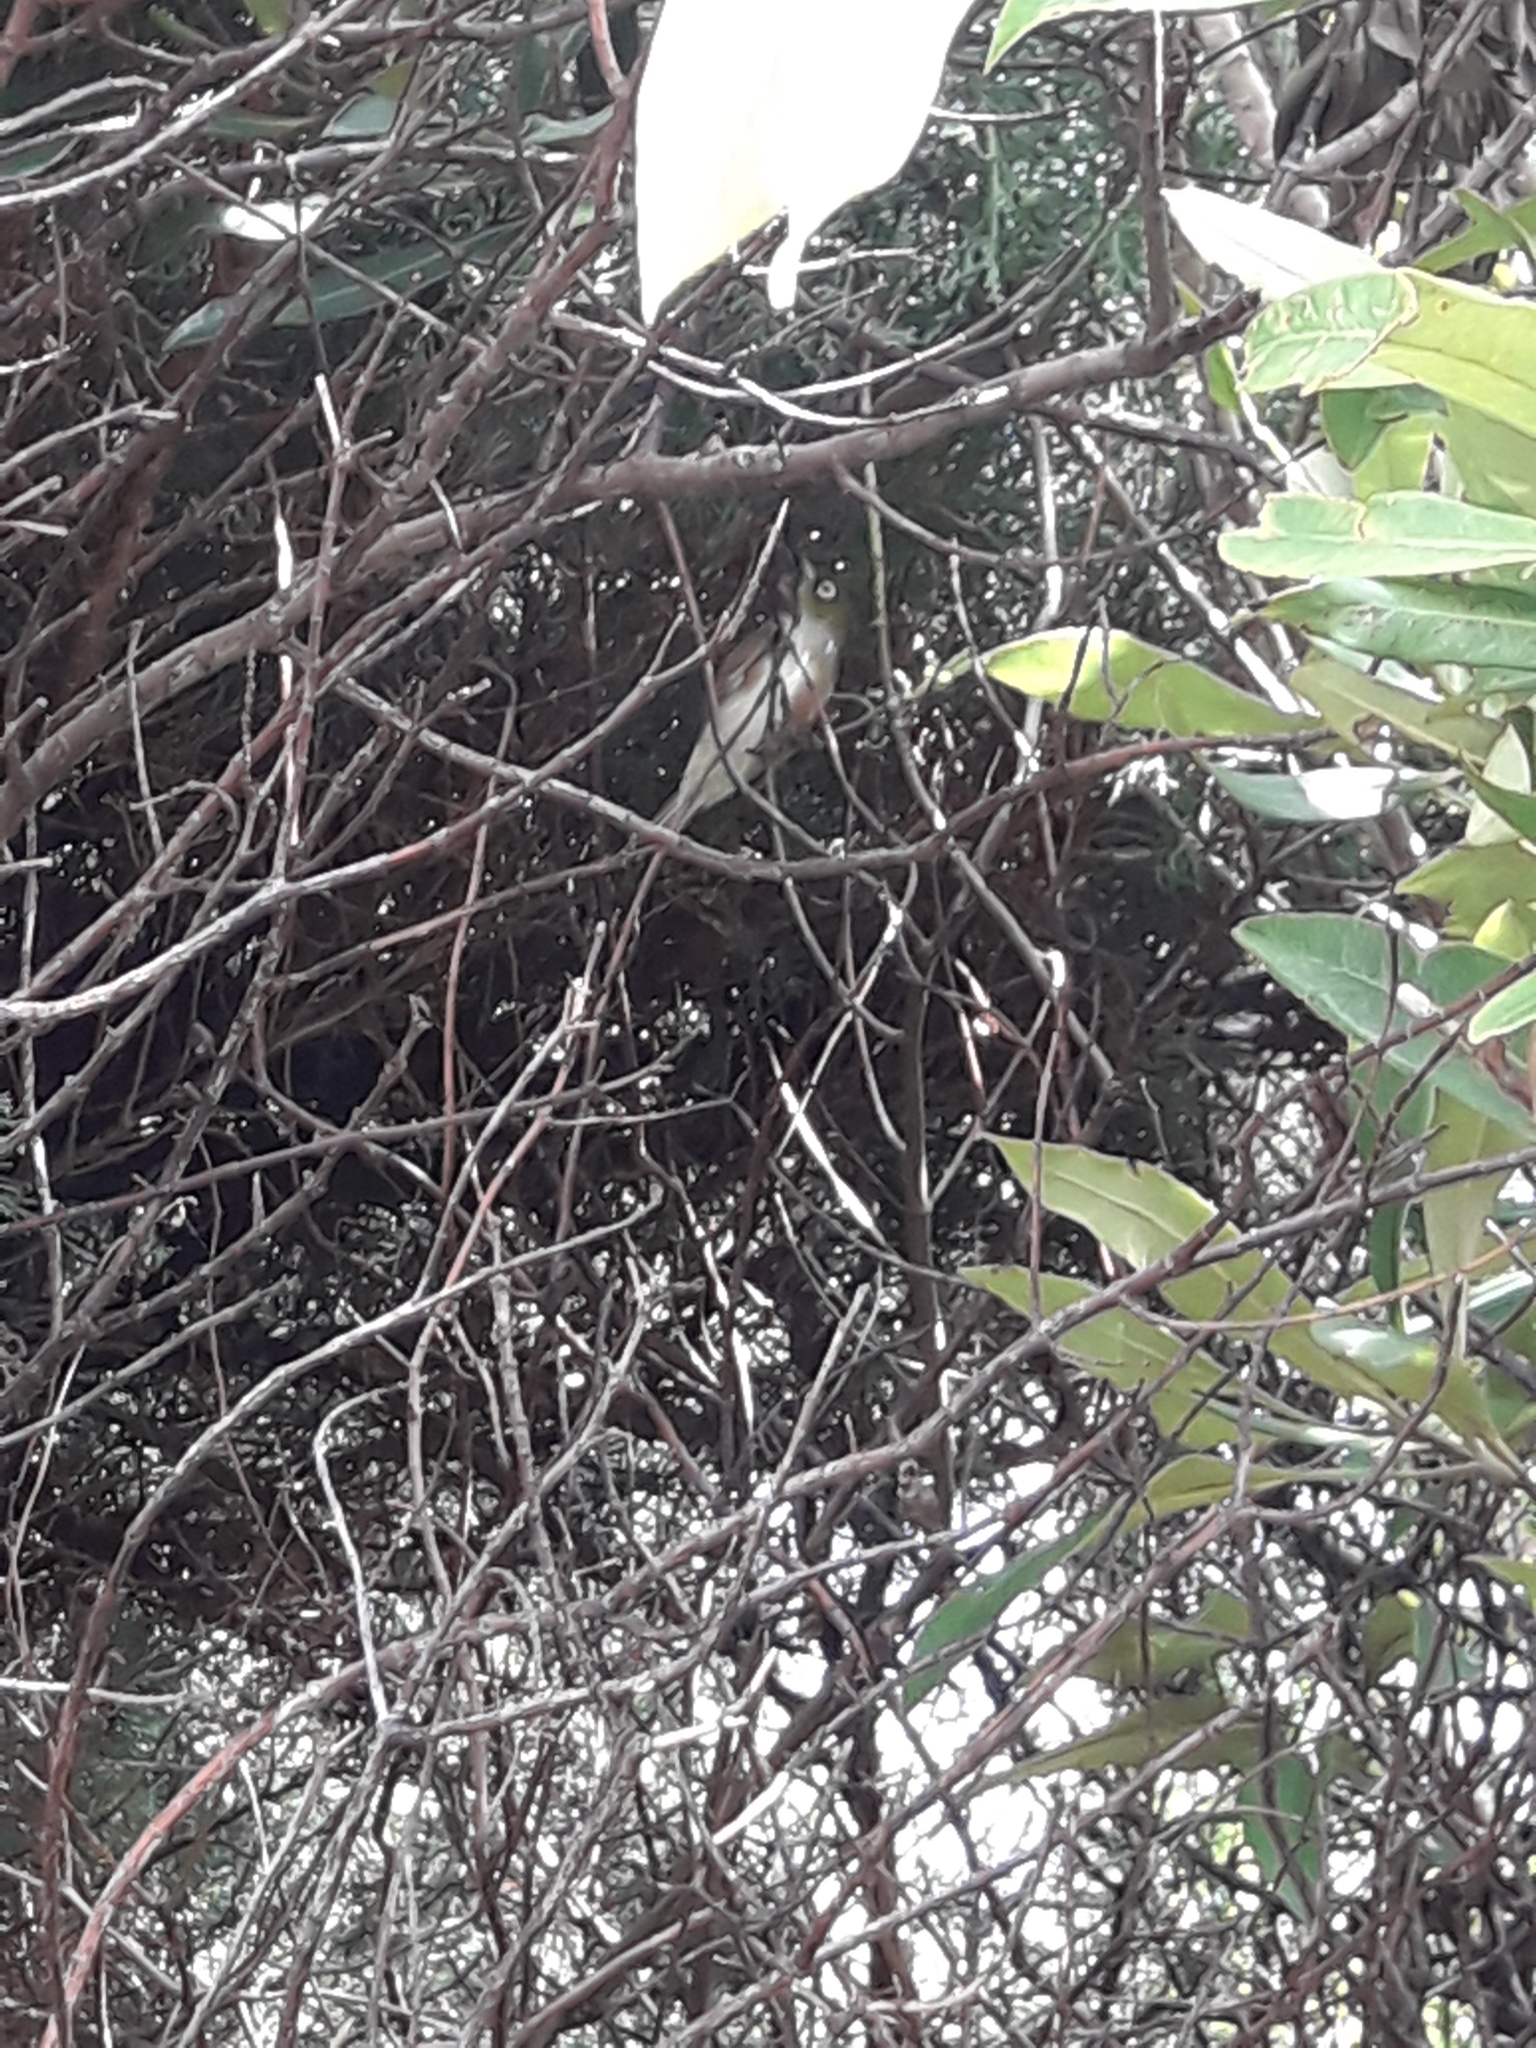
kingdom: Animalia
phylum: Chordata
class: Aves
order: Passeriformes
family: Zosteropidae
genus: Zosterops
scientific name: Zosterops lateralis
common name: Silvereye
